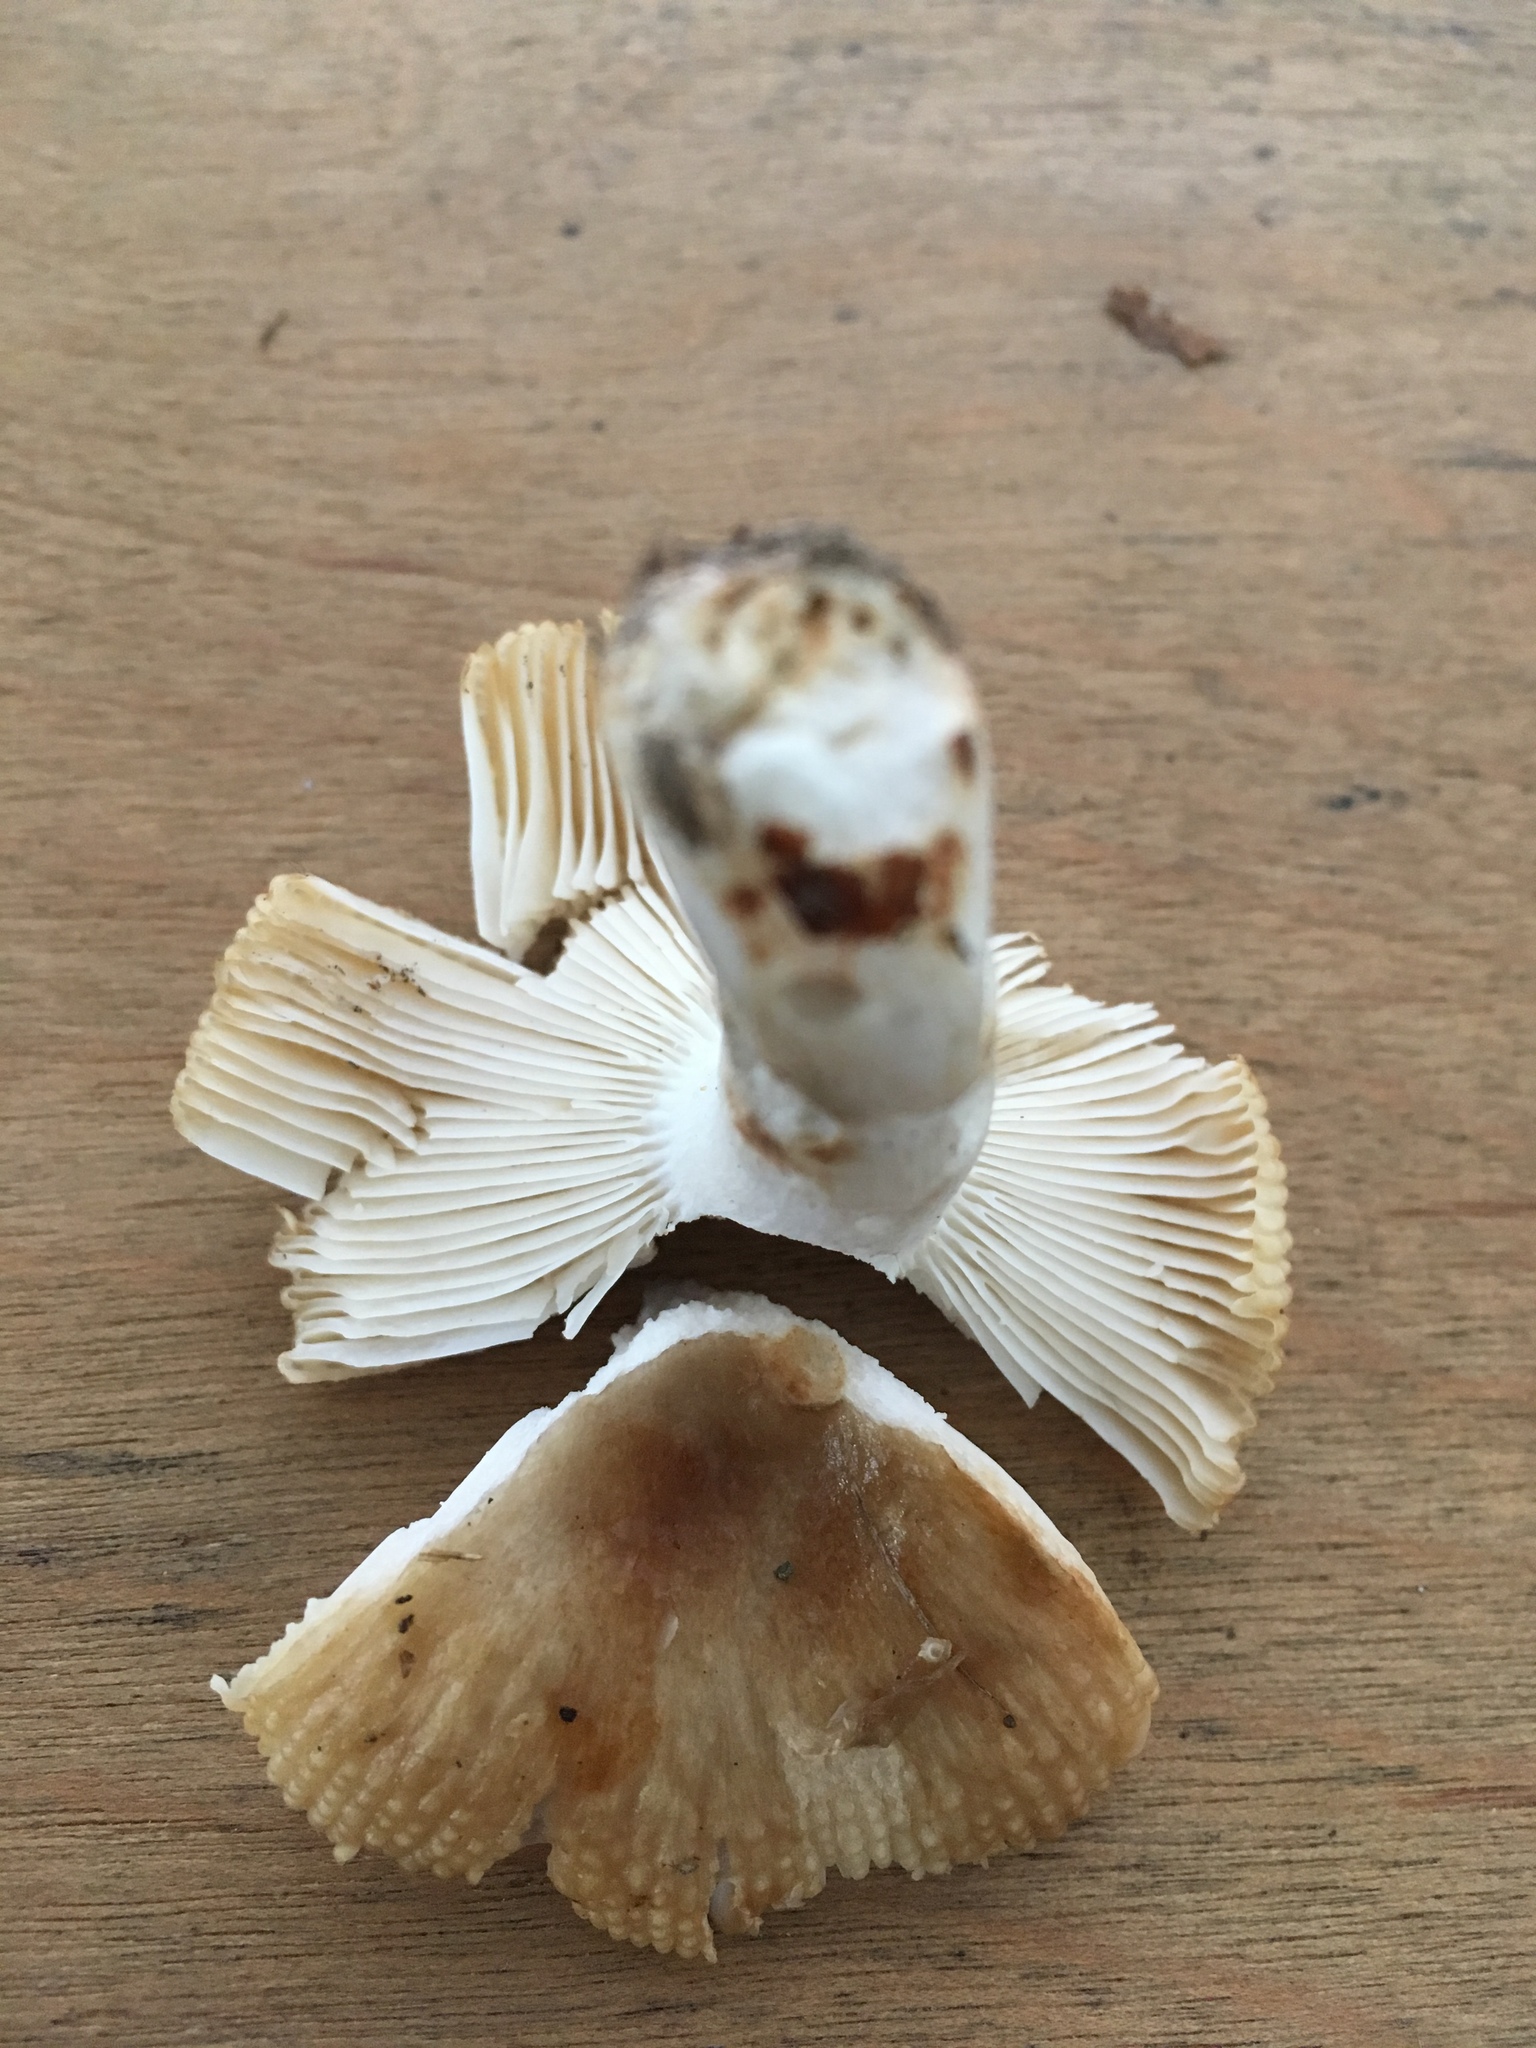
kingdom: Fungi
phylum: Basidiomycota
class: Agaricomycetes
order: Russulales
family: Russulaceae
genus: Russula
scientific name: Russula pectinatoides
